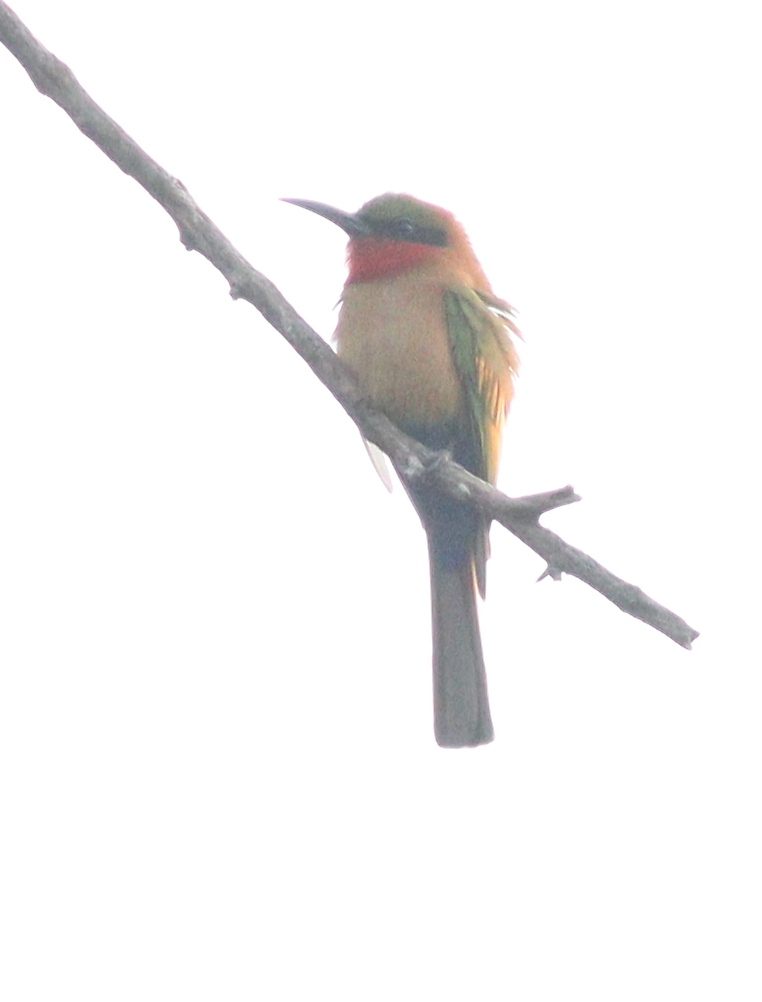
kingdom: Animalia
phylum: Chordata
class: Aves
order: Coraciiformes
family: Meropidae
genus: Merops
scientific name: Merops bulocki
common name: Red-throated bee-eater
